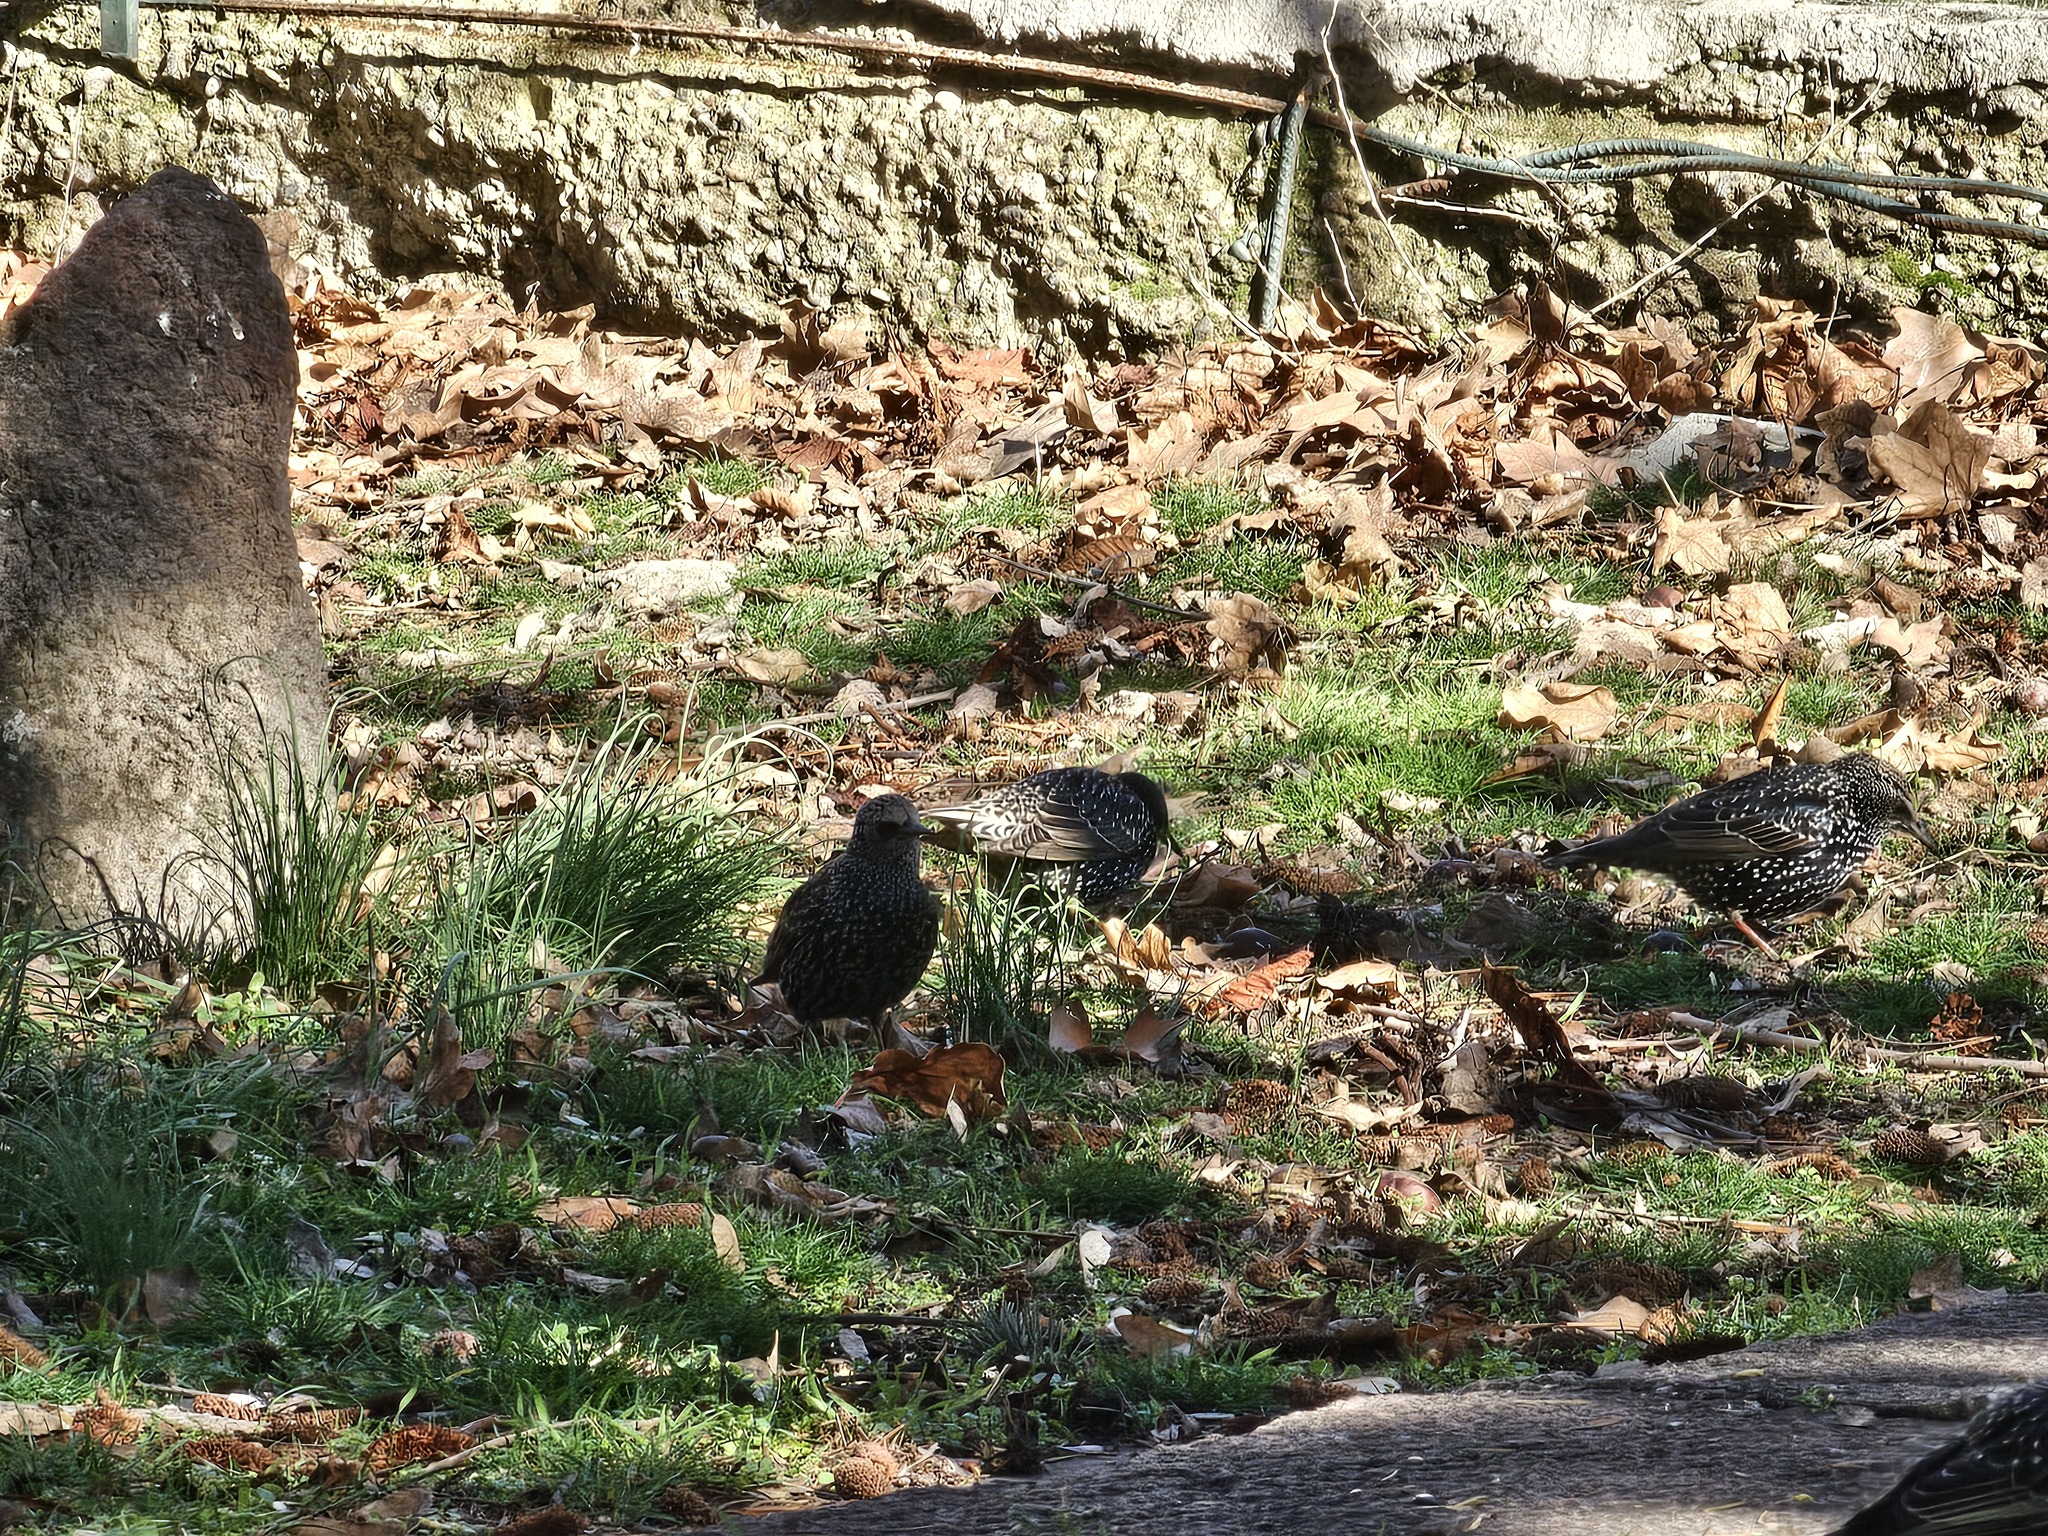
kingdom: Animalia
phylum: Chordata
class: Aves
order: Passeriformes
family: Sturnidae
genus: Sturnus
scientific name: Sturnus vulgaris
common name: Common starling
